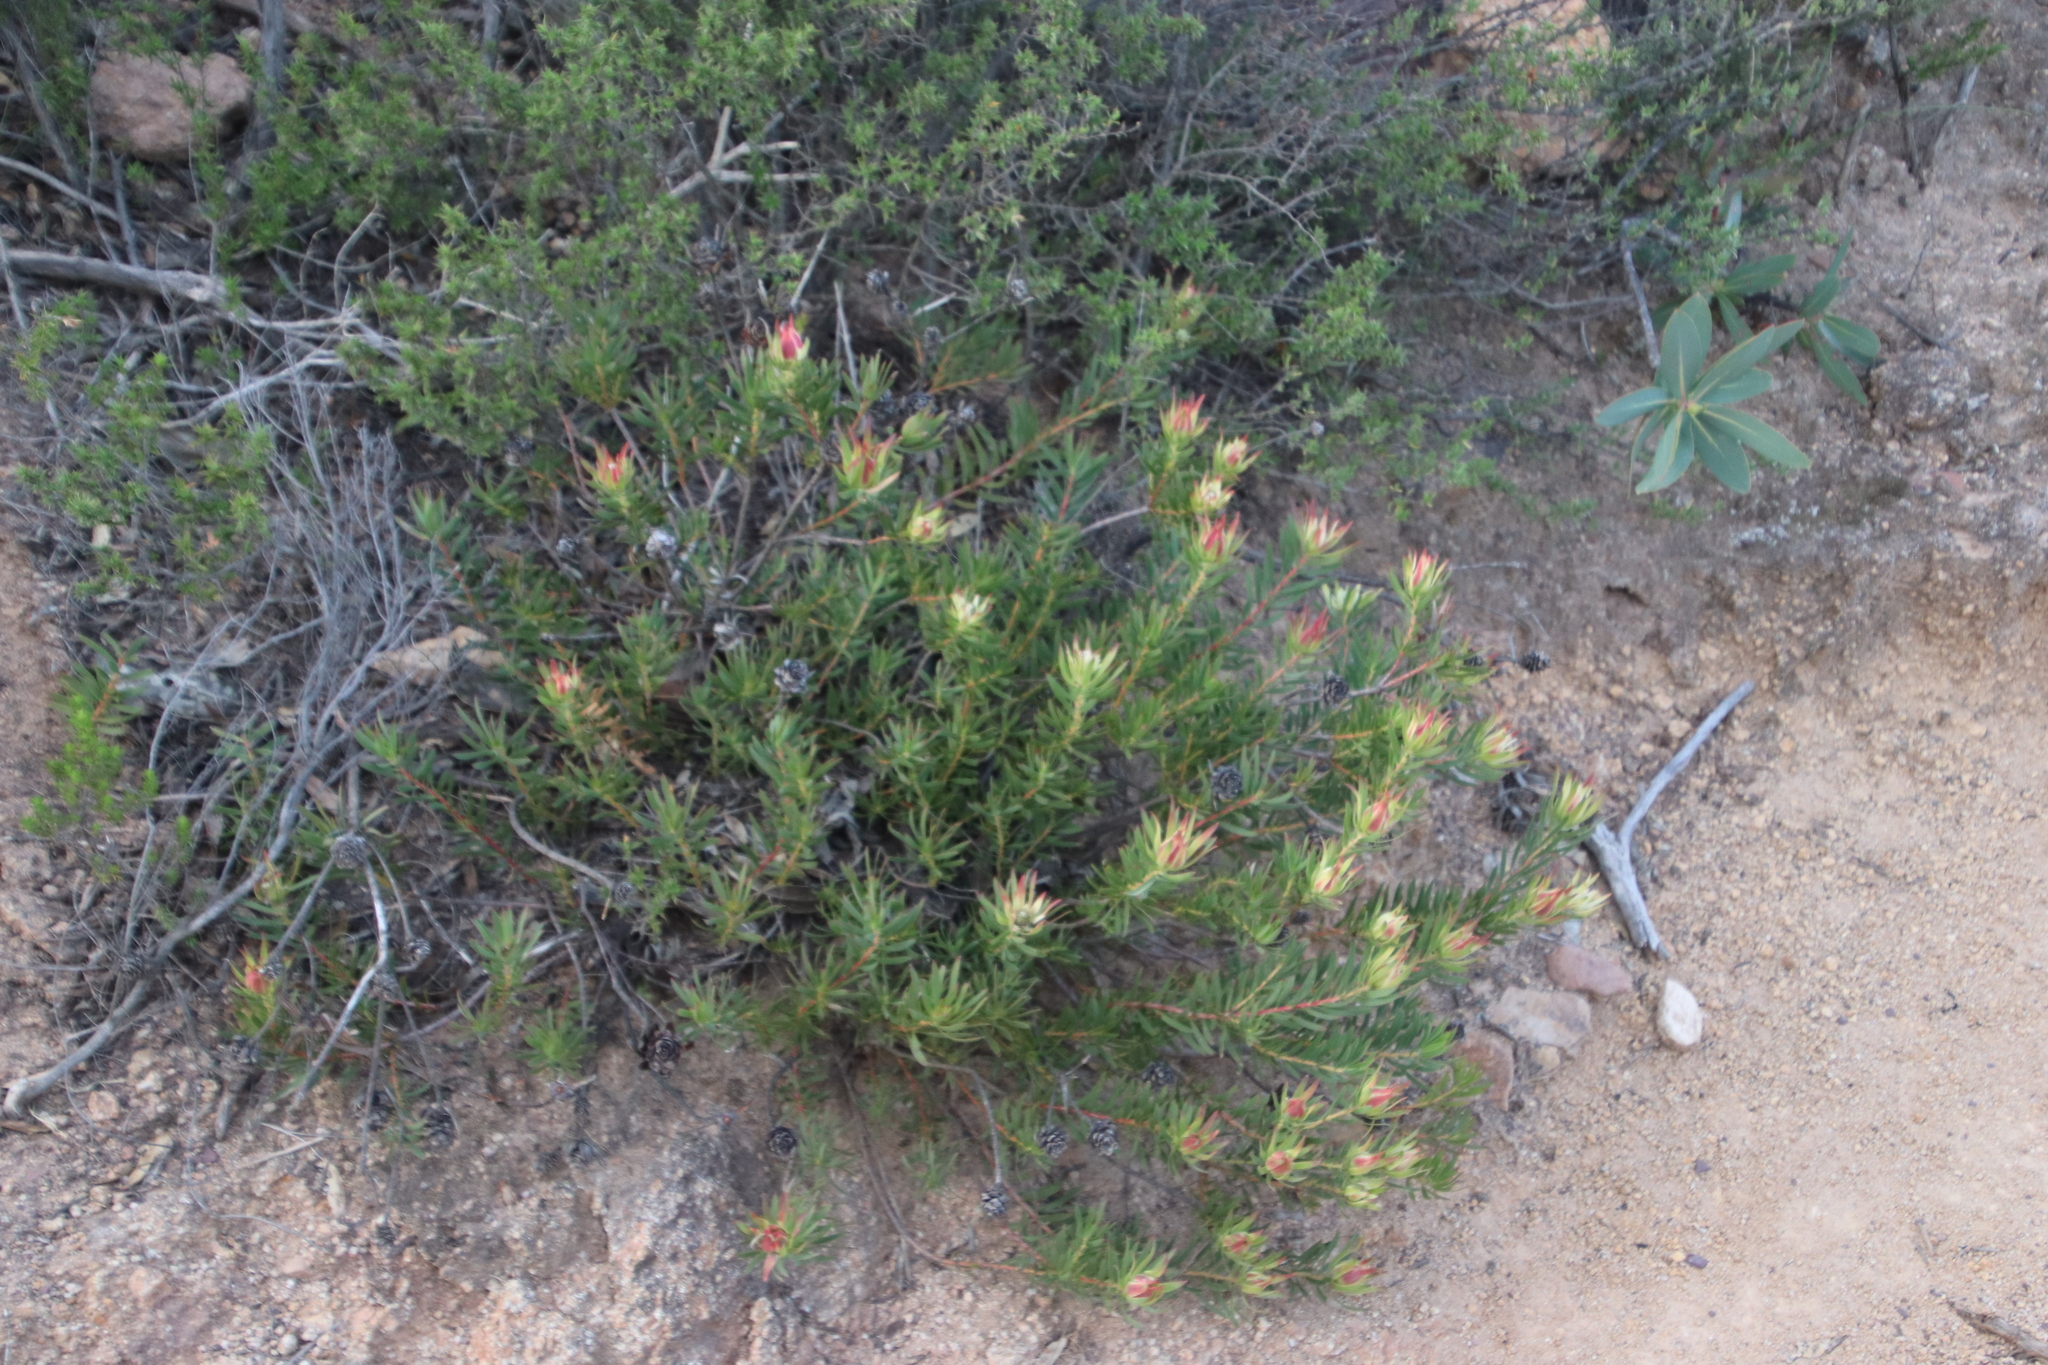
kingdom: Plantae
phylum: Tracheophyta
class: Magnoliopsida
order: Proteales
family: Proteaceae
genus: Leucadendron
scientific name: Leucadendron salignum
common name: Common sunshine conebush
